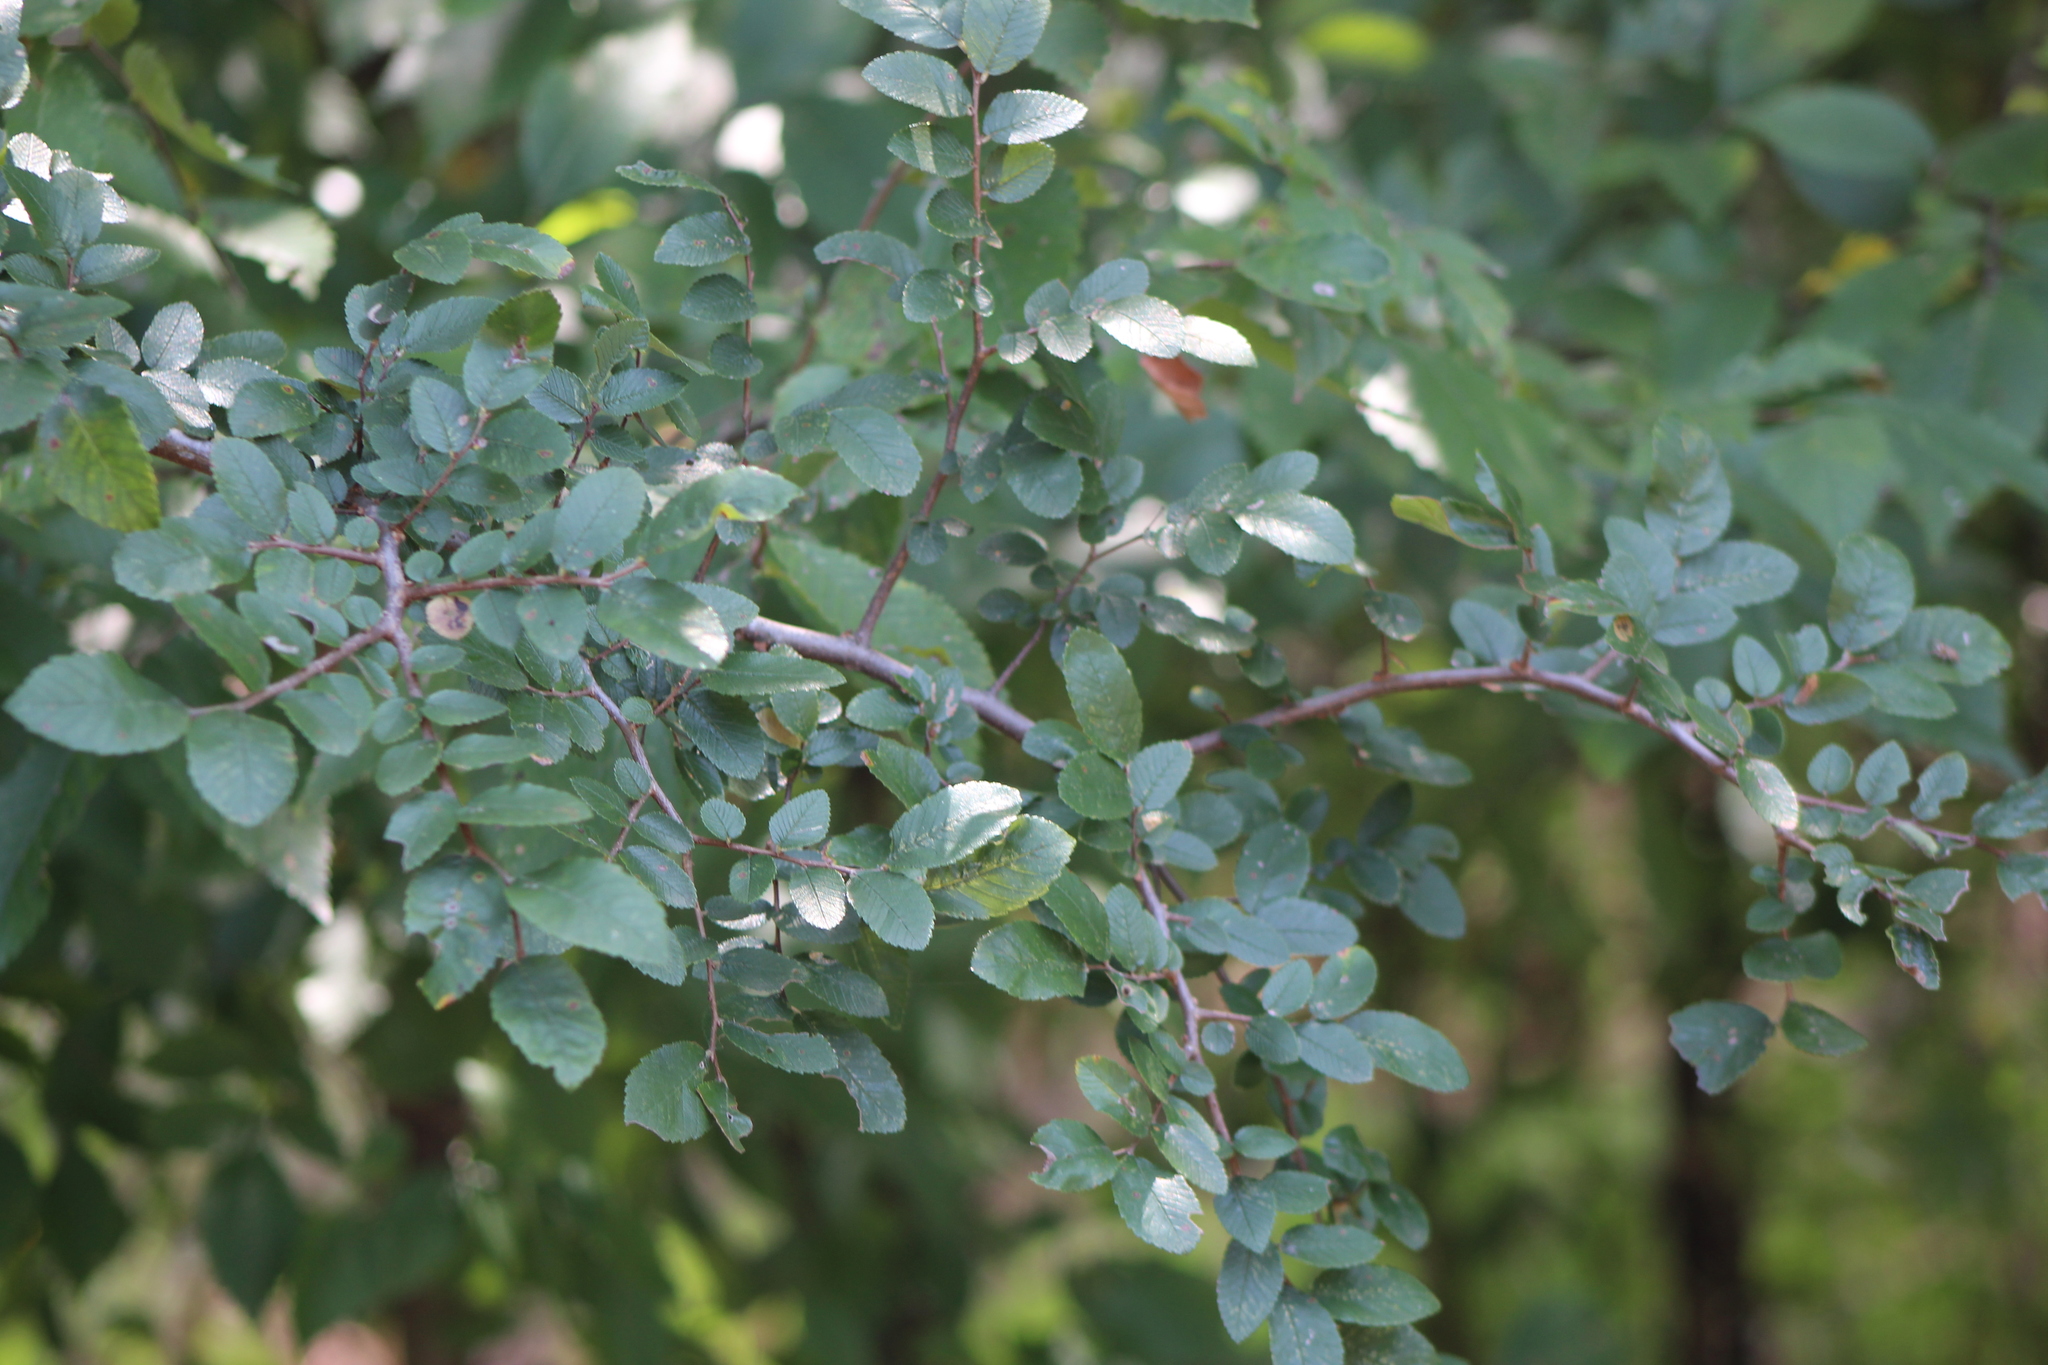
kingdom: Plantae
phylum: Tracheophyta
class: Magnoliopsida
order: Rosales
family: Ulmaceae
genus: Ulmus
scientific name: Ulmus crassifolia
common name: Basket elm
